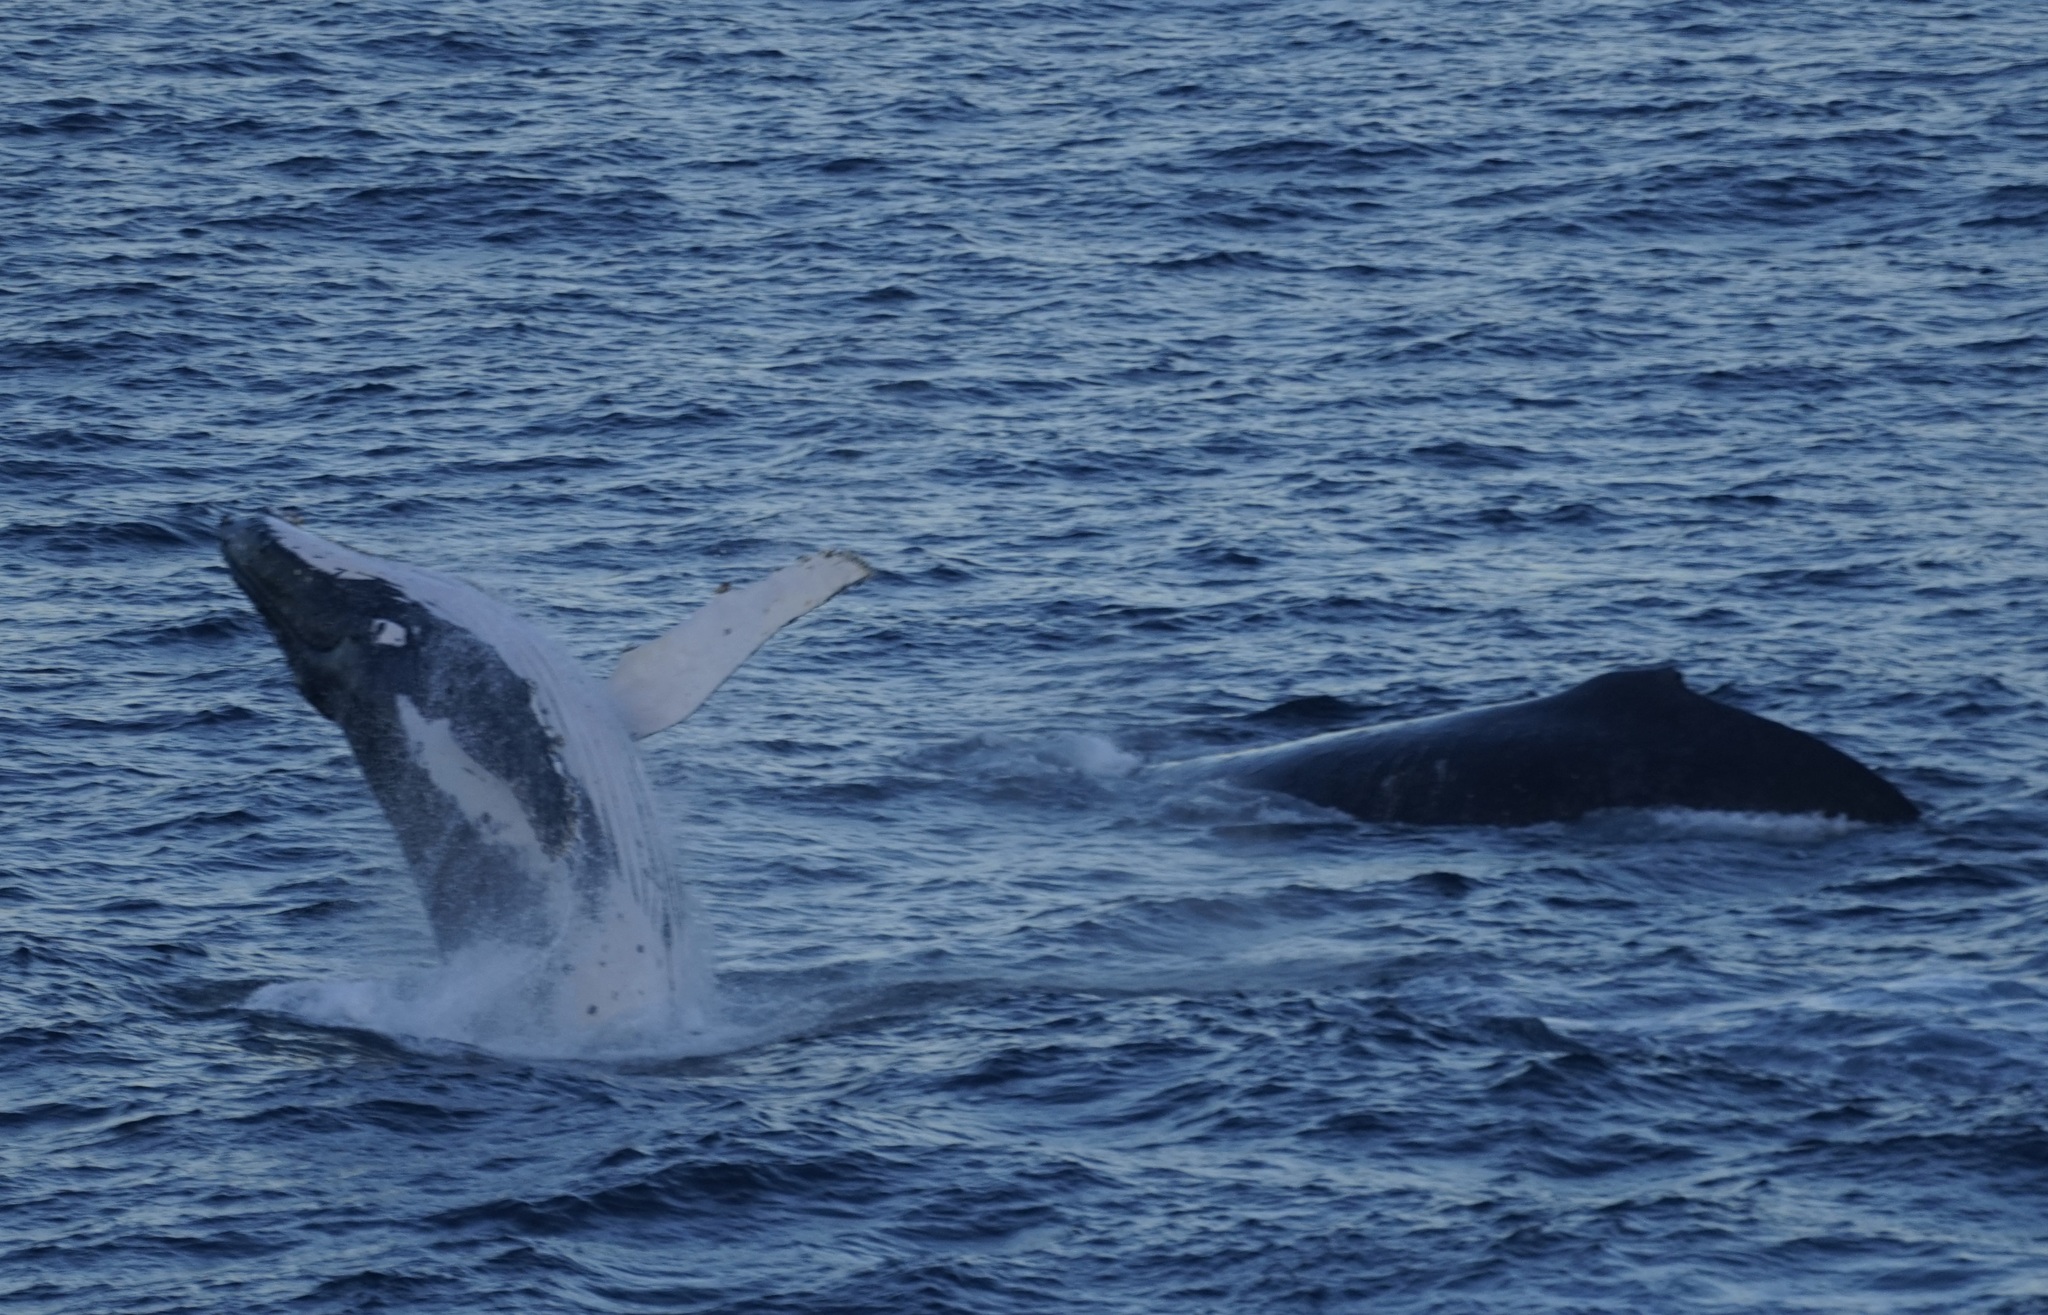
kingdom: Animalia
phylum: Chordata
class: Mammalia
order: Cetacea
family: Balaenopteridae
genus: Megaptera
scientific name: Megaptera novaeangliae
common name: Humpback whale
